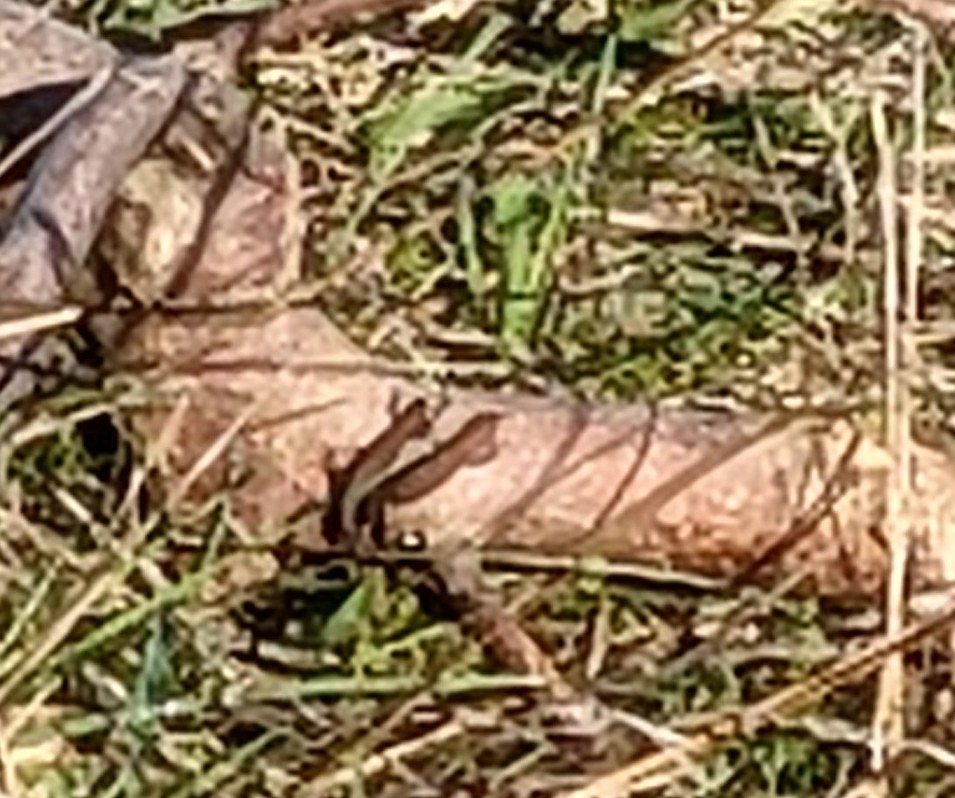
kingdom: Animalia
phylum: Chordata
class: Squamata
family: Lacertidae
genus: Zootoca
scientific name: Zootoca vivipara
